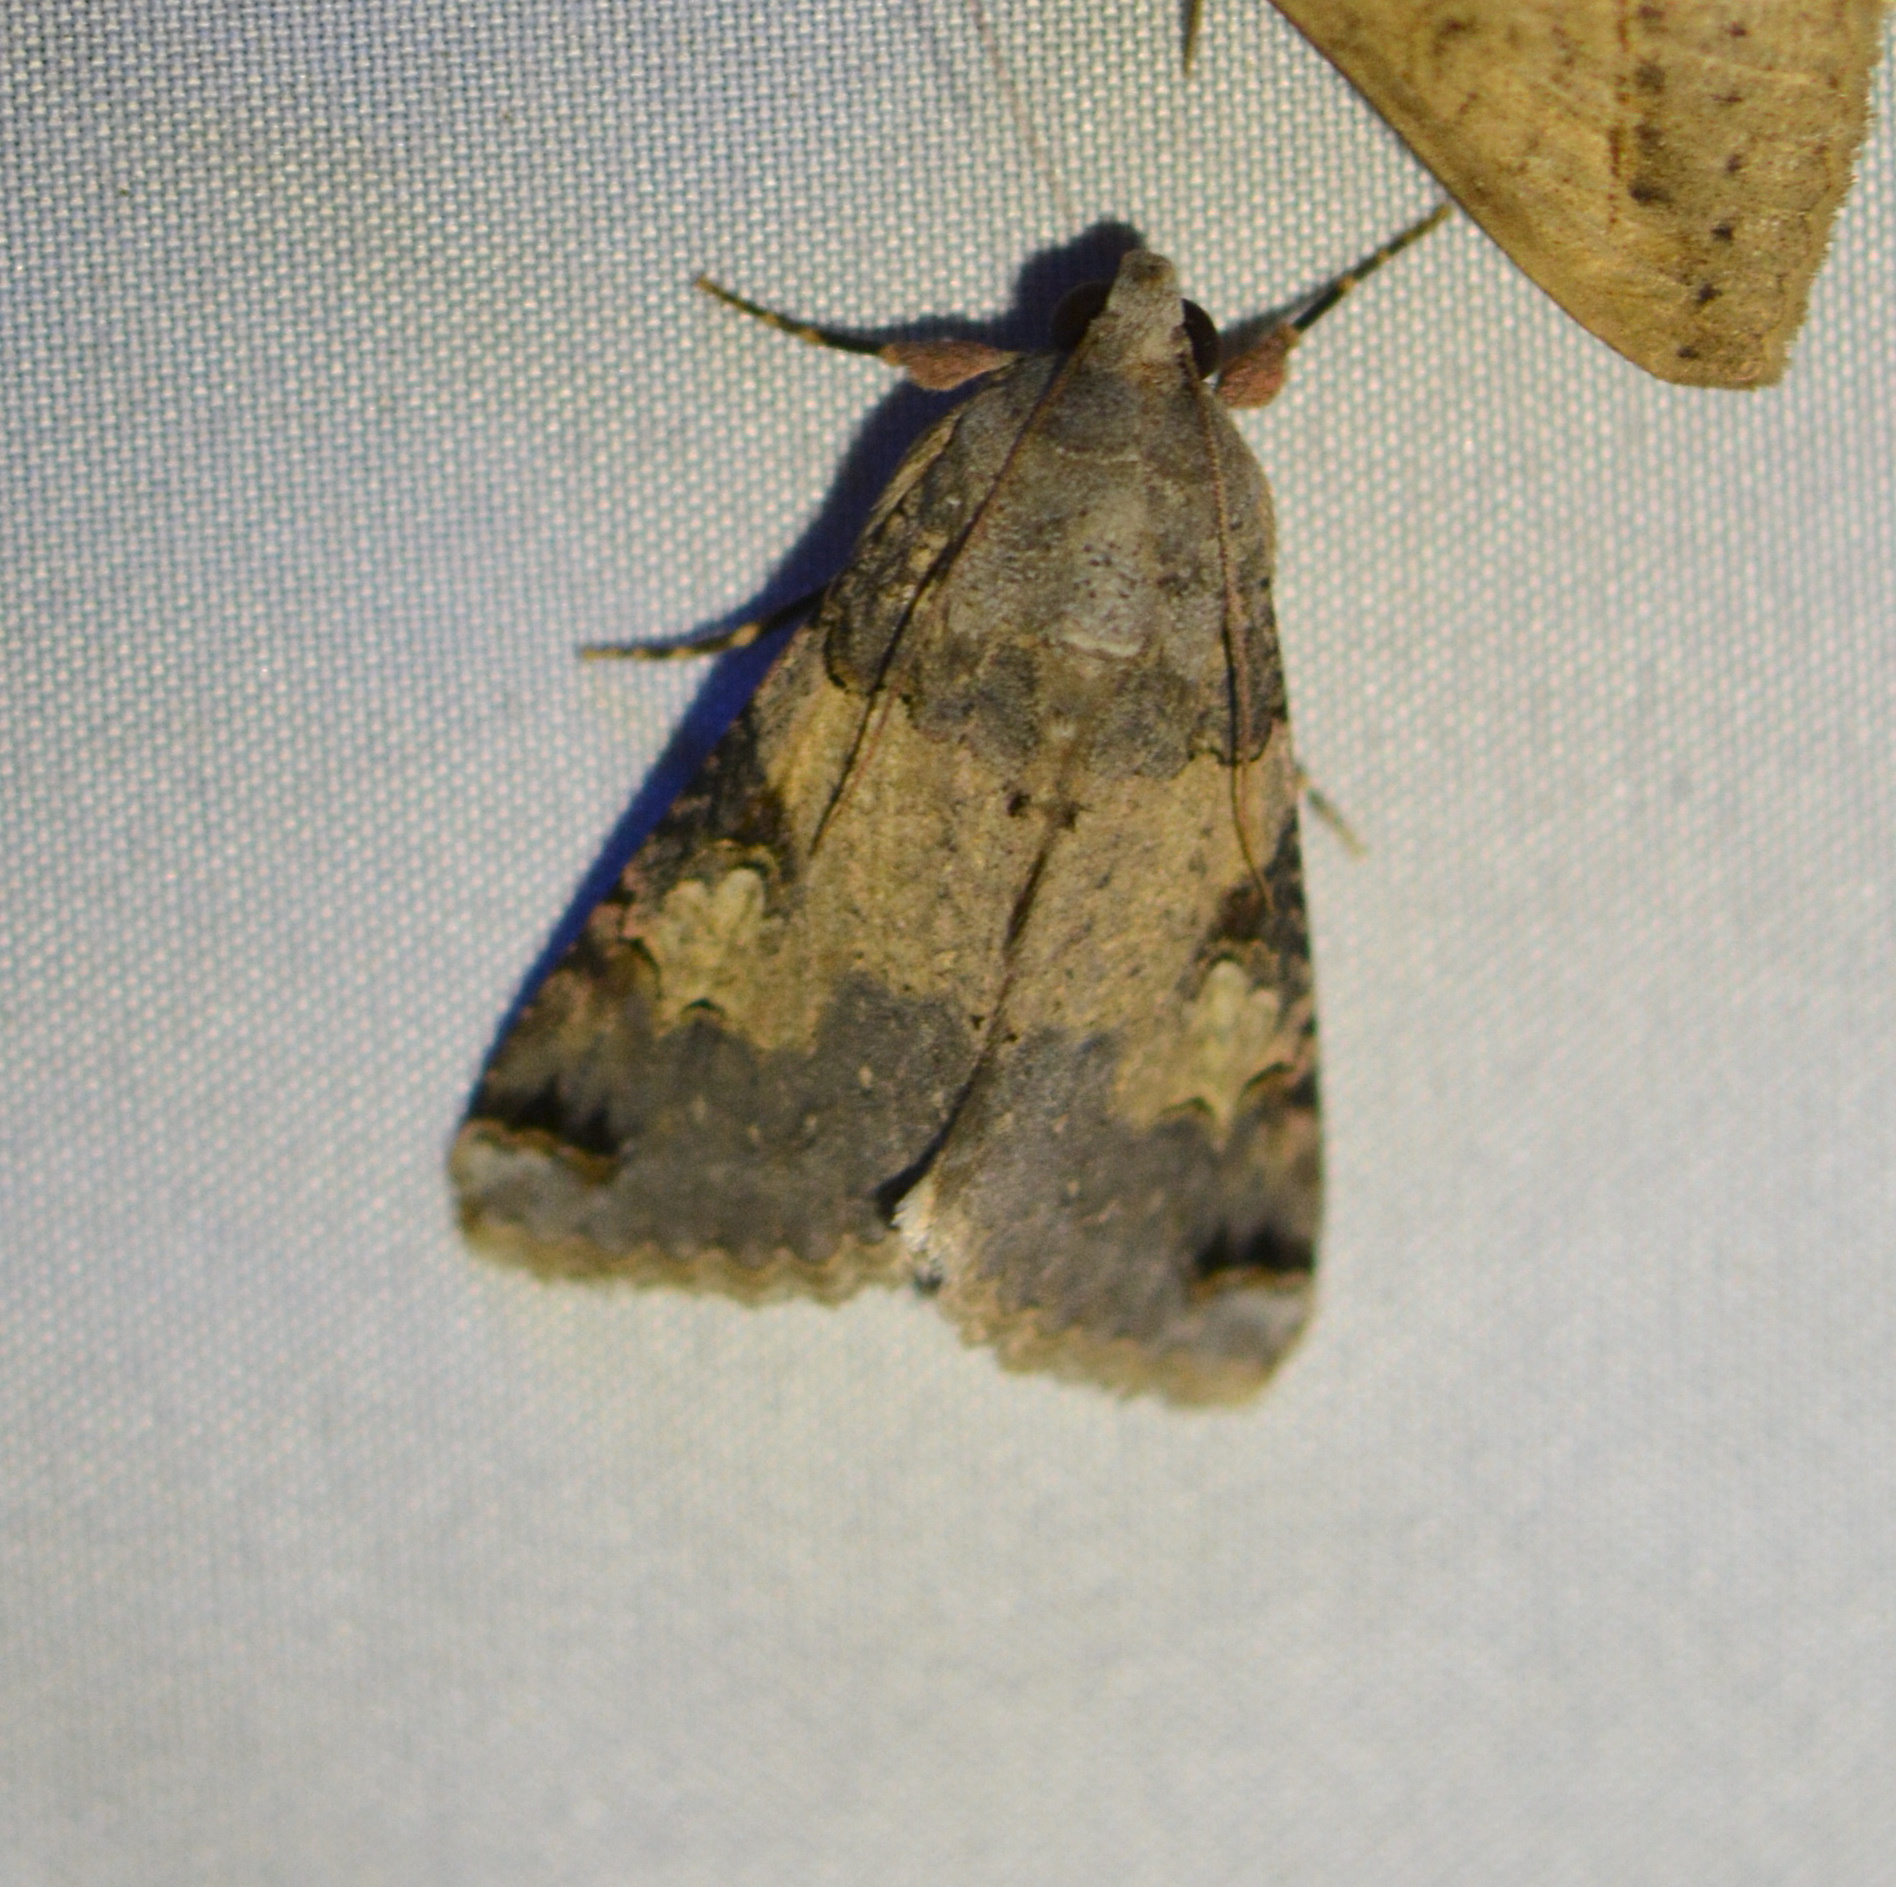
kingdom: Animalia
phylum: Arthropoda
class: Insecta
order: Lepidoptera
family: Erebidae
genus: Melipotis
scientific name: Melipotis novanda
